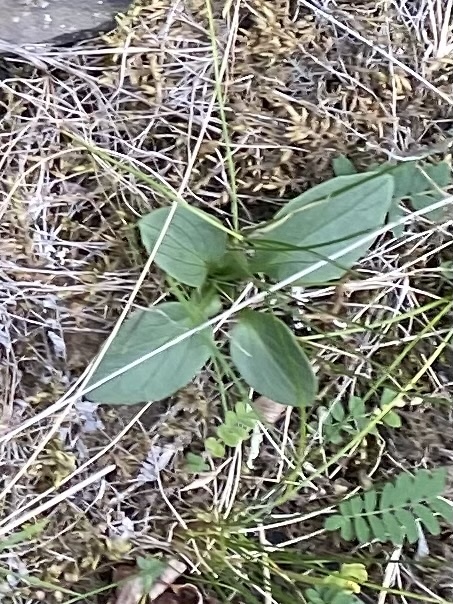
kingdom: Plantae
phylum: Tracheophyta
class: Magnoliopsida
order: Dipsacales
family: Caprifoliaceae
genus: Valeriana
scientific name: Valeriana capitata
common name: Capitate valerian
